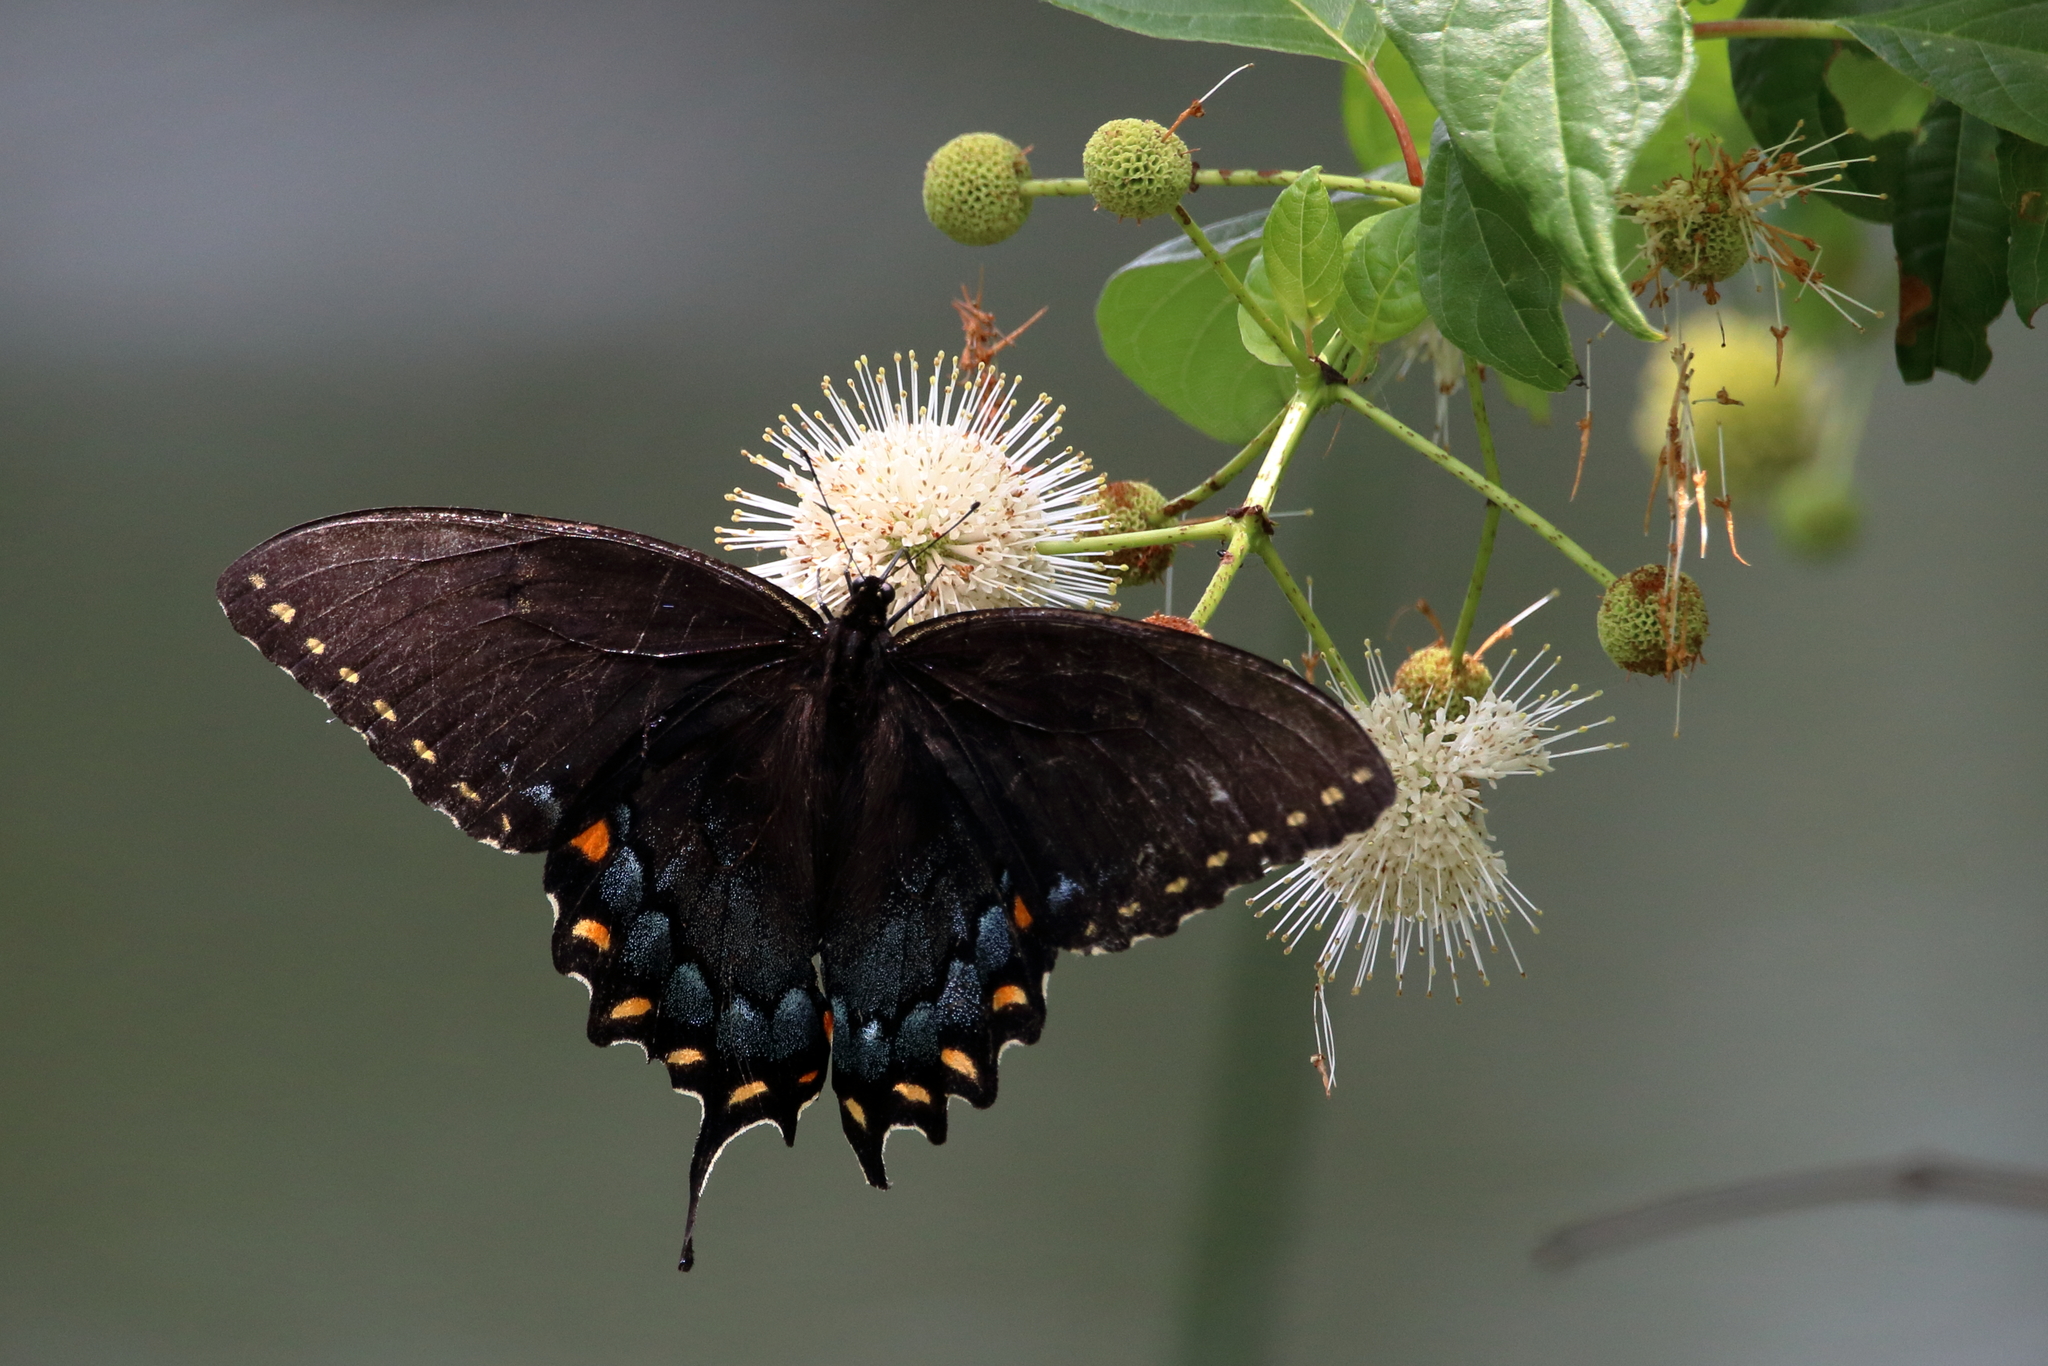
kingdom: Animalia
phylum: Arthropoda
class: Insecta
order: Lepidoptera
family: Papilionidae
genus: Papilio
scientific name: Papilio glaucus
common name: Tiger swallowtail
